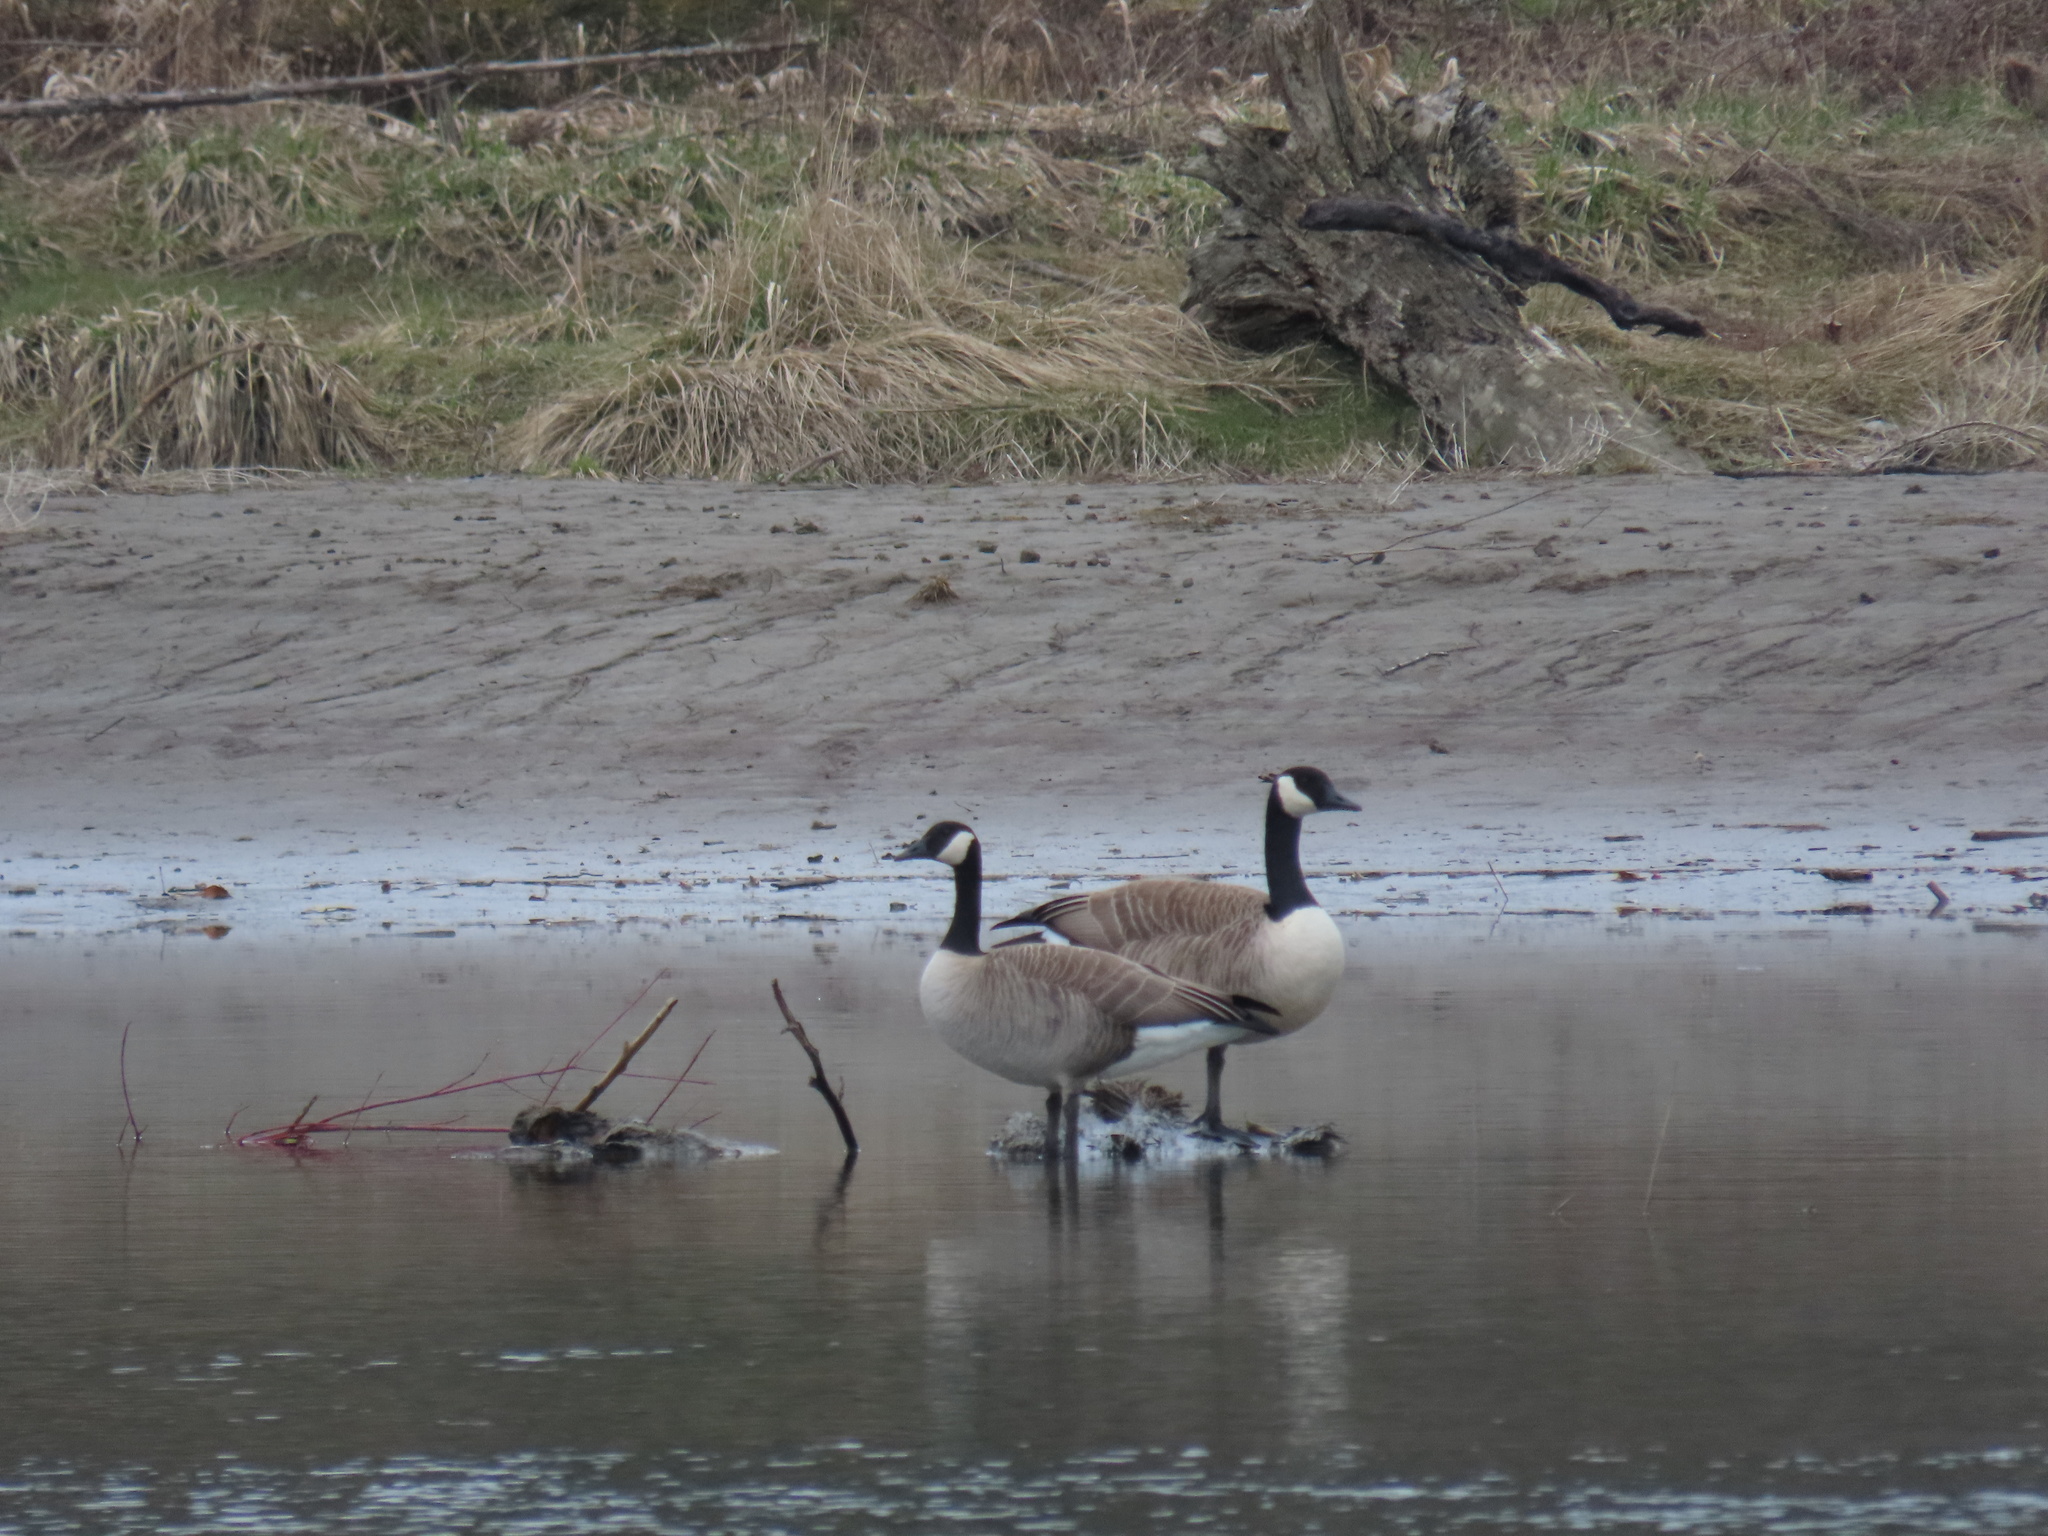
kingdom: Animalia
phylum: Chordata
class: Aves
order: Anseriformes
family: Anatidae
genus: Branta
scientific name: Branta canadensis
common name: Canada goose
